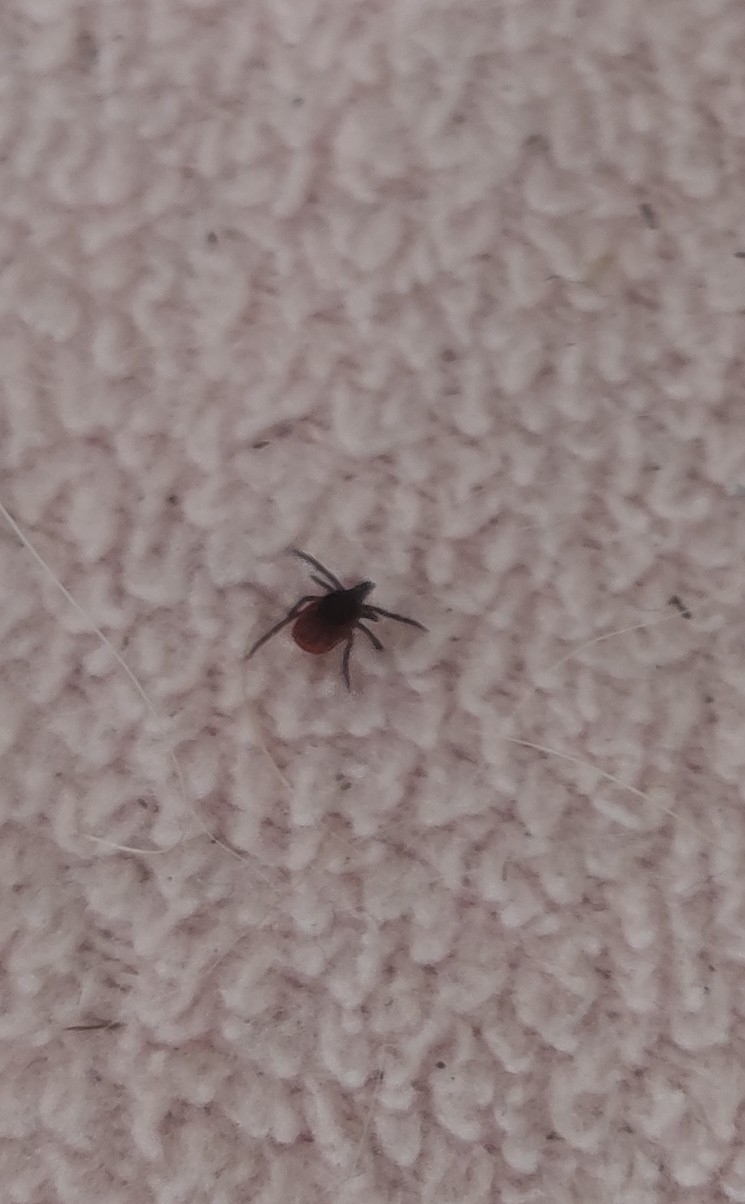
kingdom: Animalia
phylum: Arthropoda
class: Arachnida
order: Ixodida
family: Ixodidae
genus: Ixodes
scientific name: Ixodes ricinus
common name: Castor bean tick
